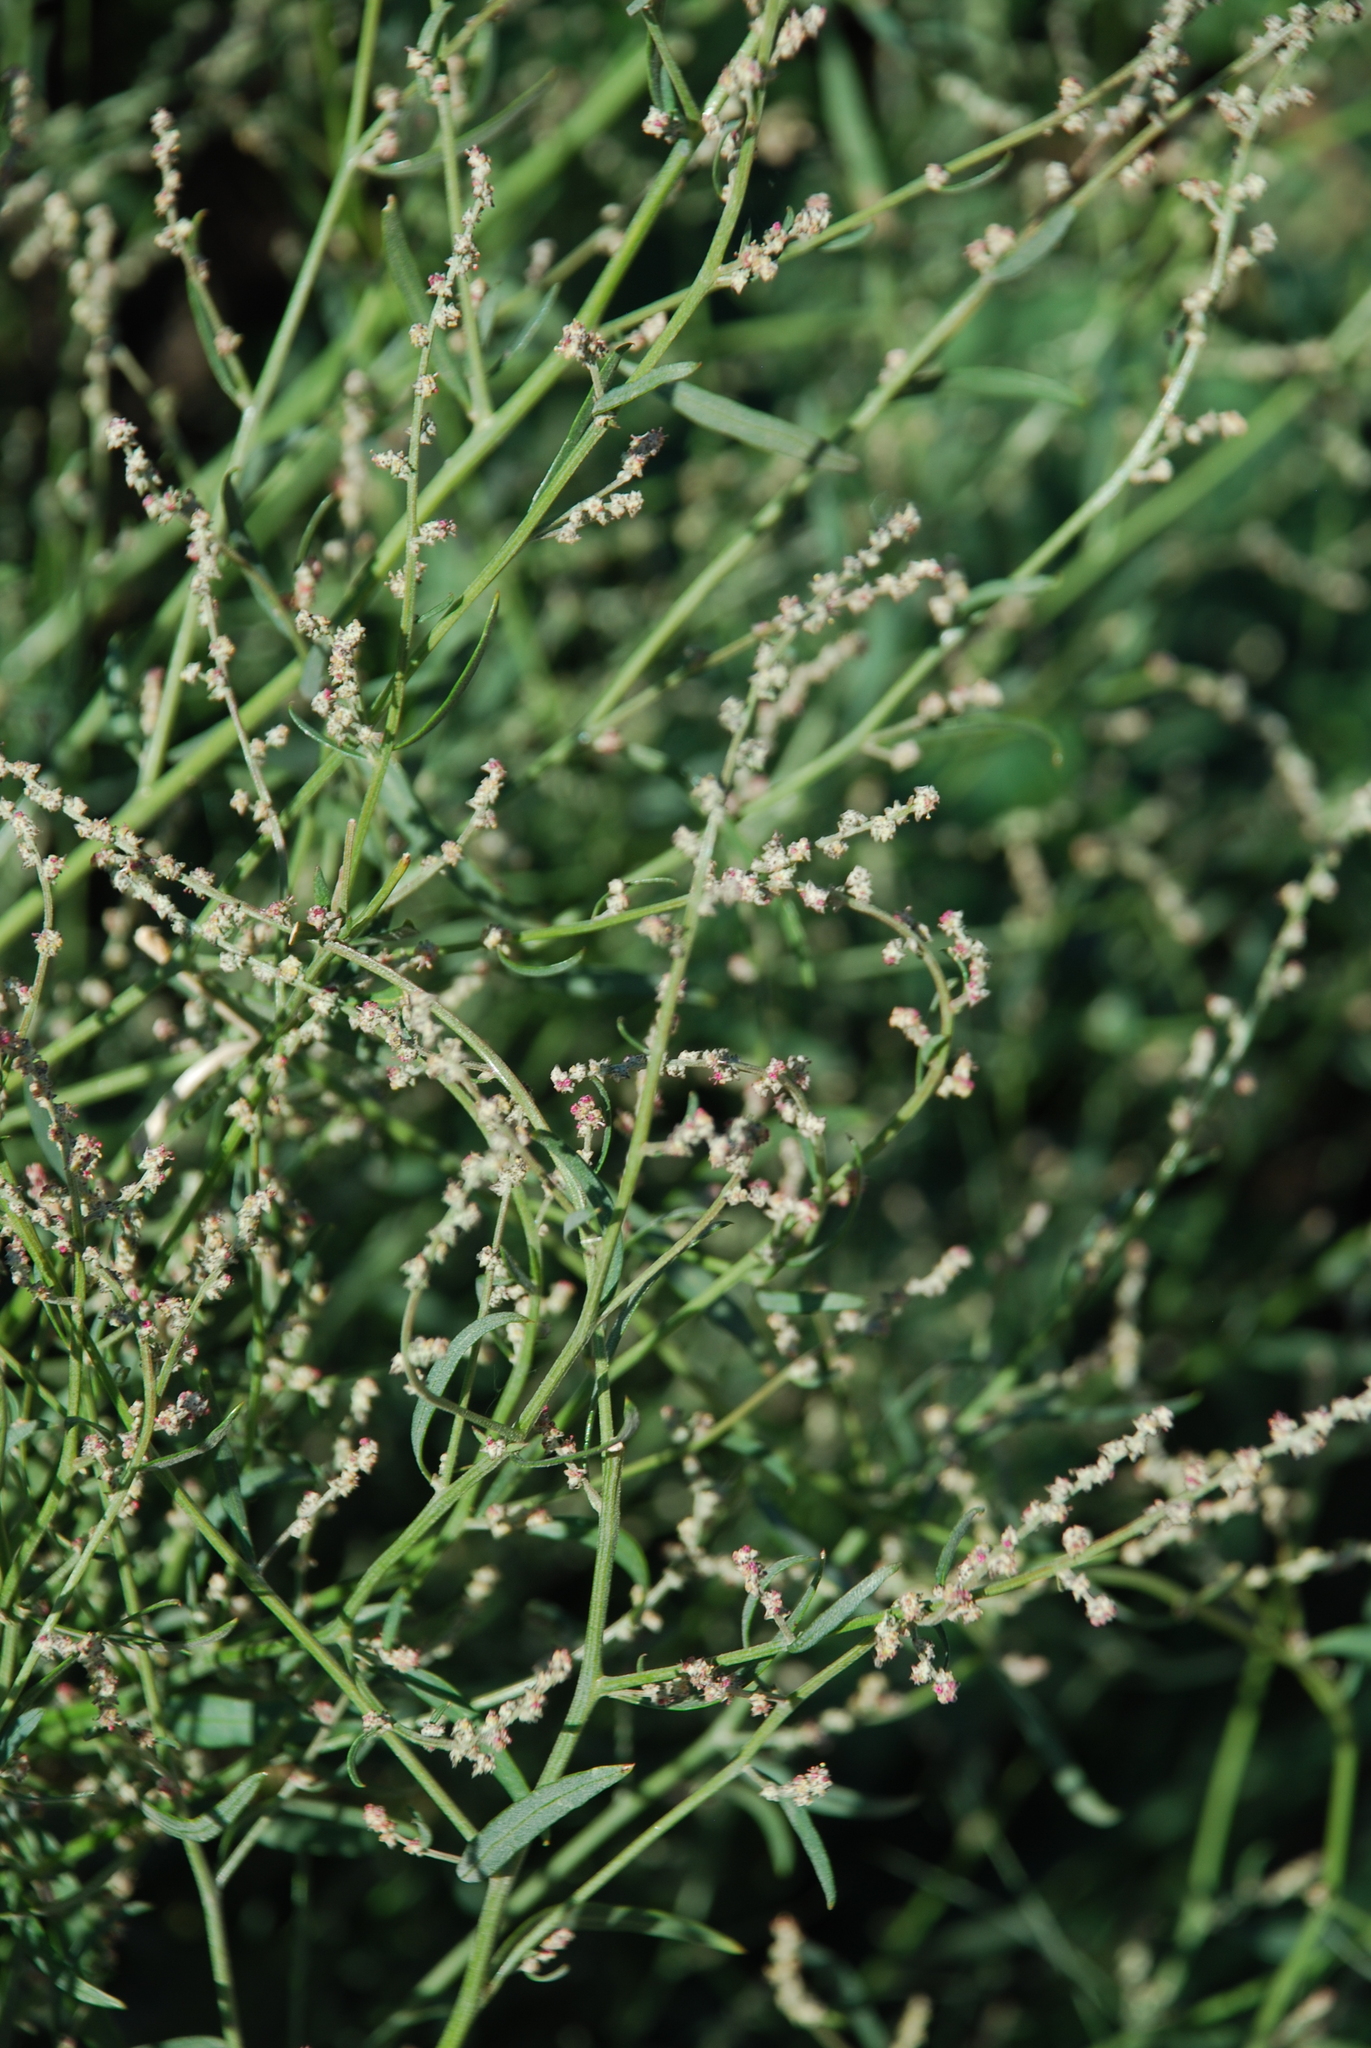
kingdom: Plantae
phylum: Tracheophyta
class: Magnoliopsida
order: Caryophyllales
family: Amaranthaceae
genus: Atriplex
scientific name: Atriplex patula
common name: Common orache
